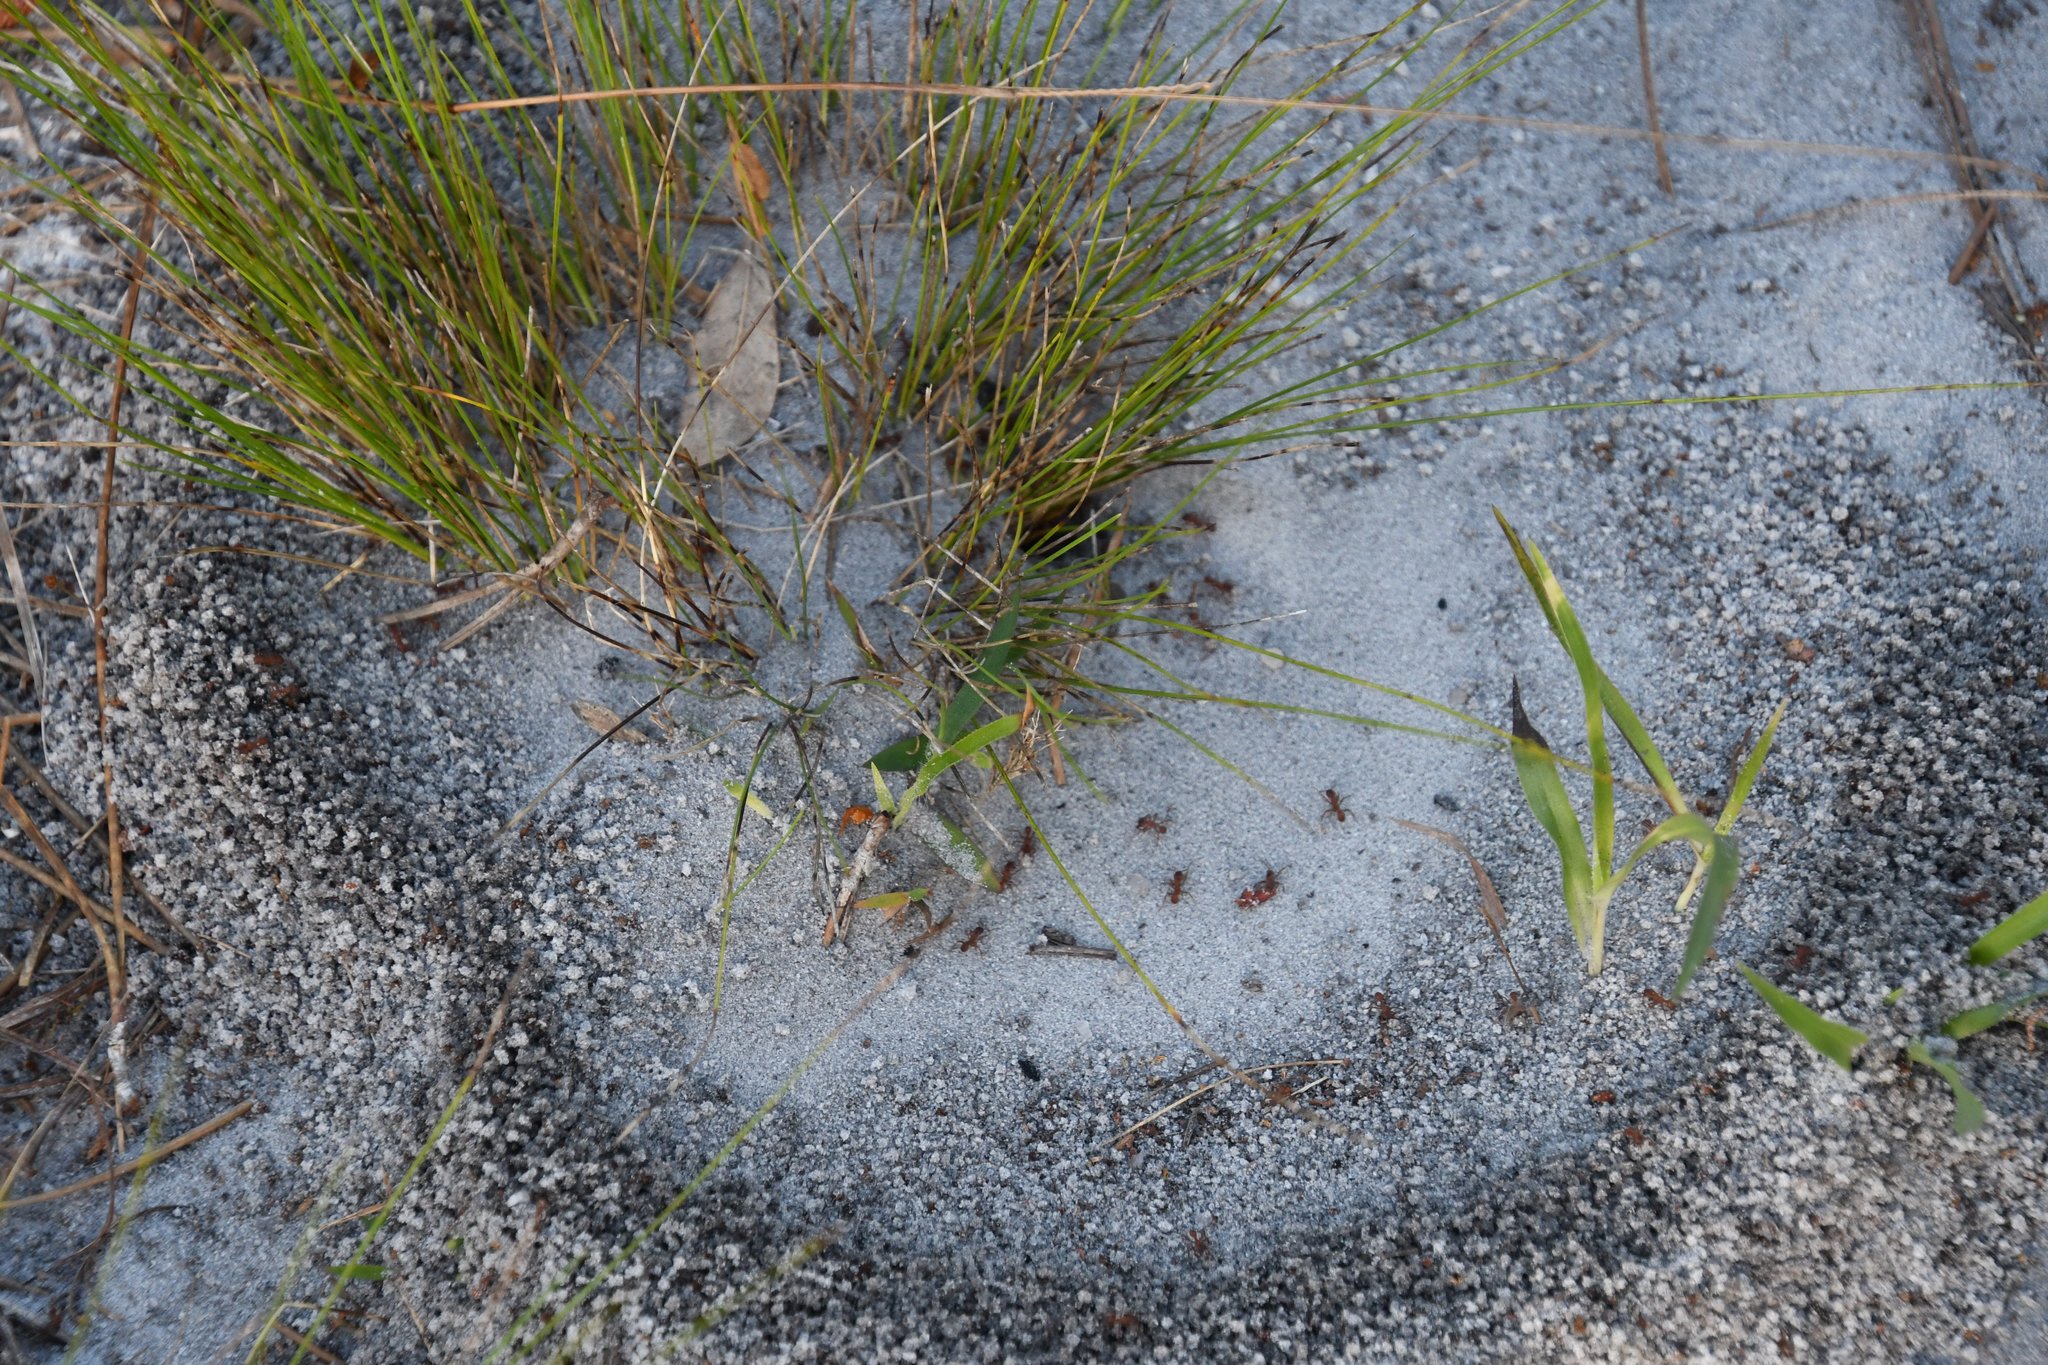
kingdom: Animalia
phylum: Arthropoda
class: Insecta
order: Hymenoptera
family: Formicidae
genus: Trachymyrmex
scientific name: Trachymyrmex septentrionalis
